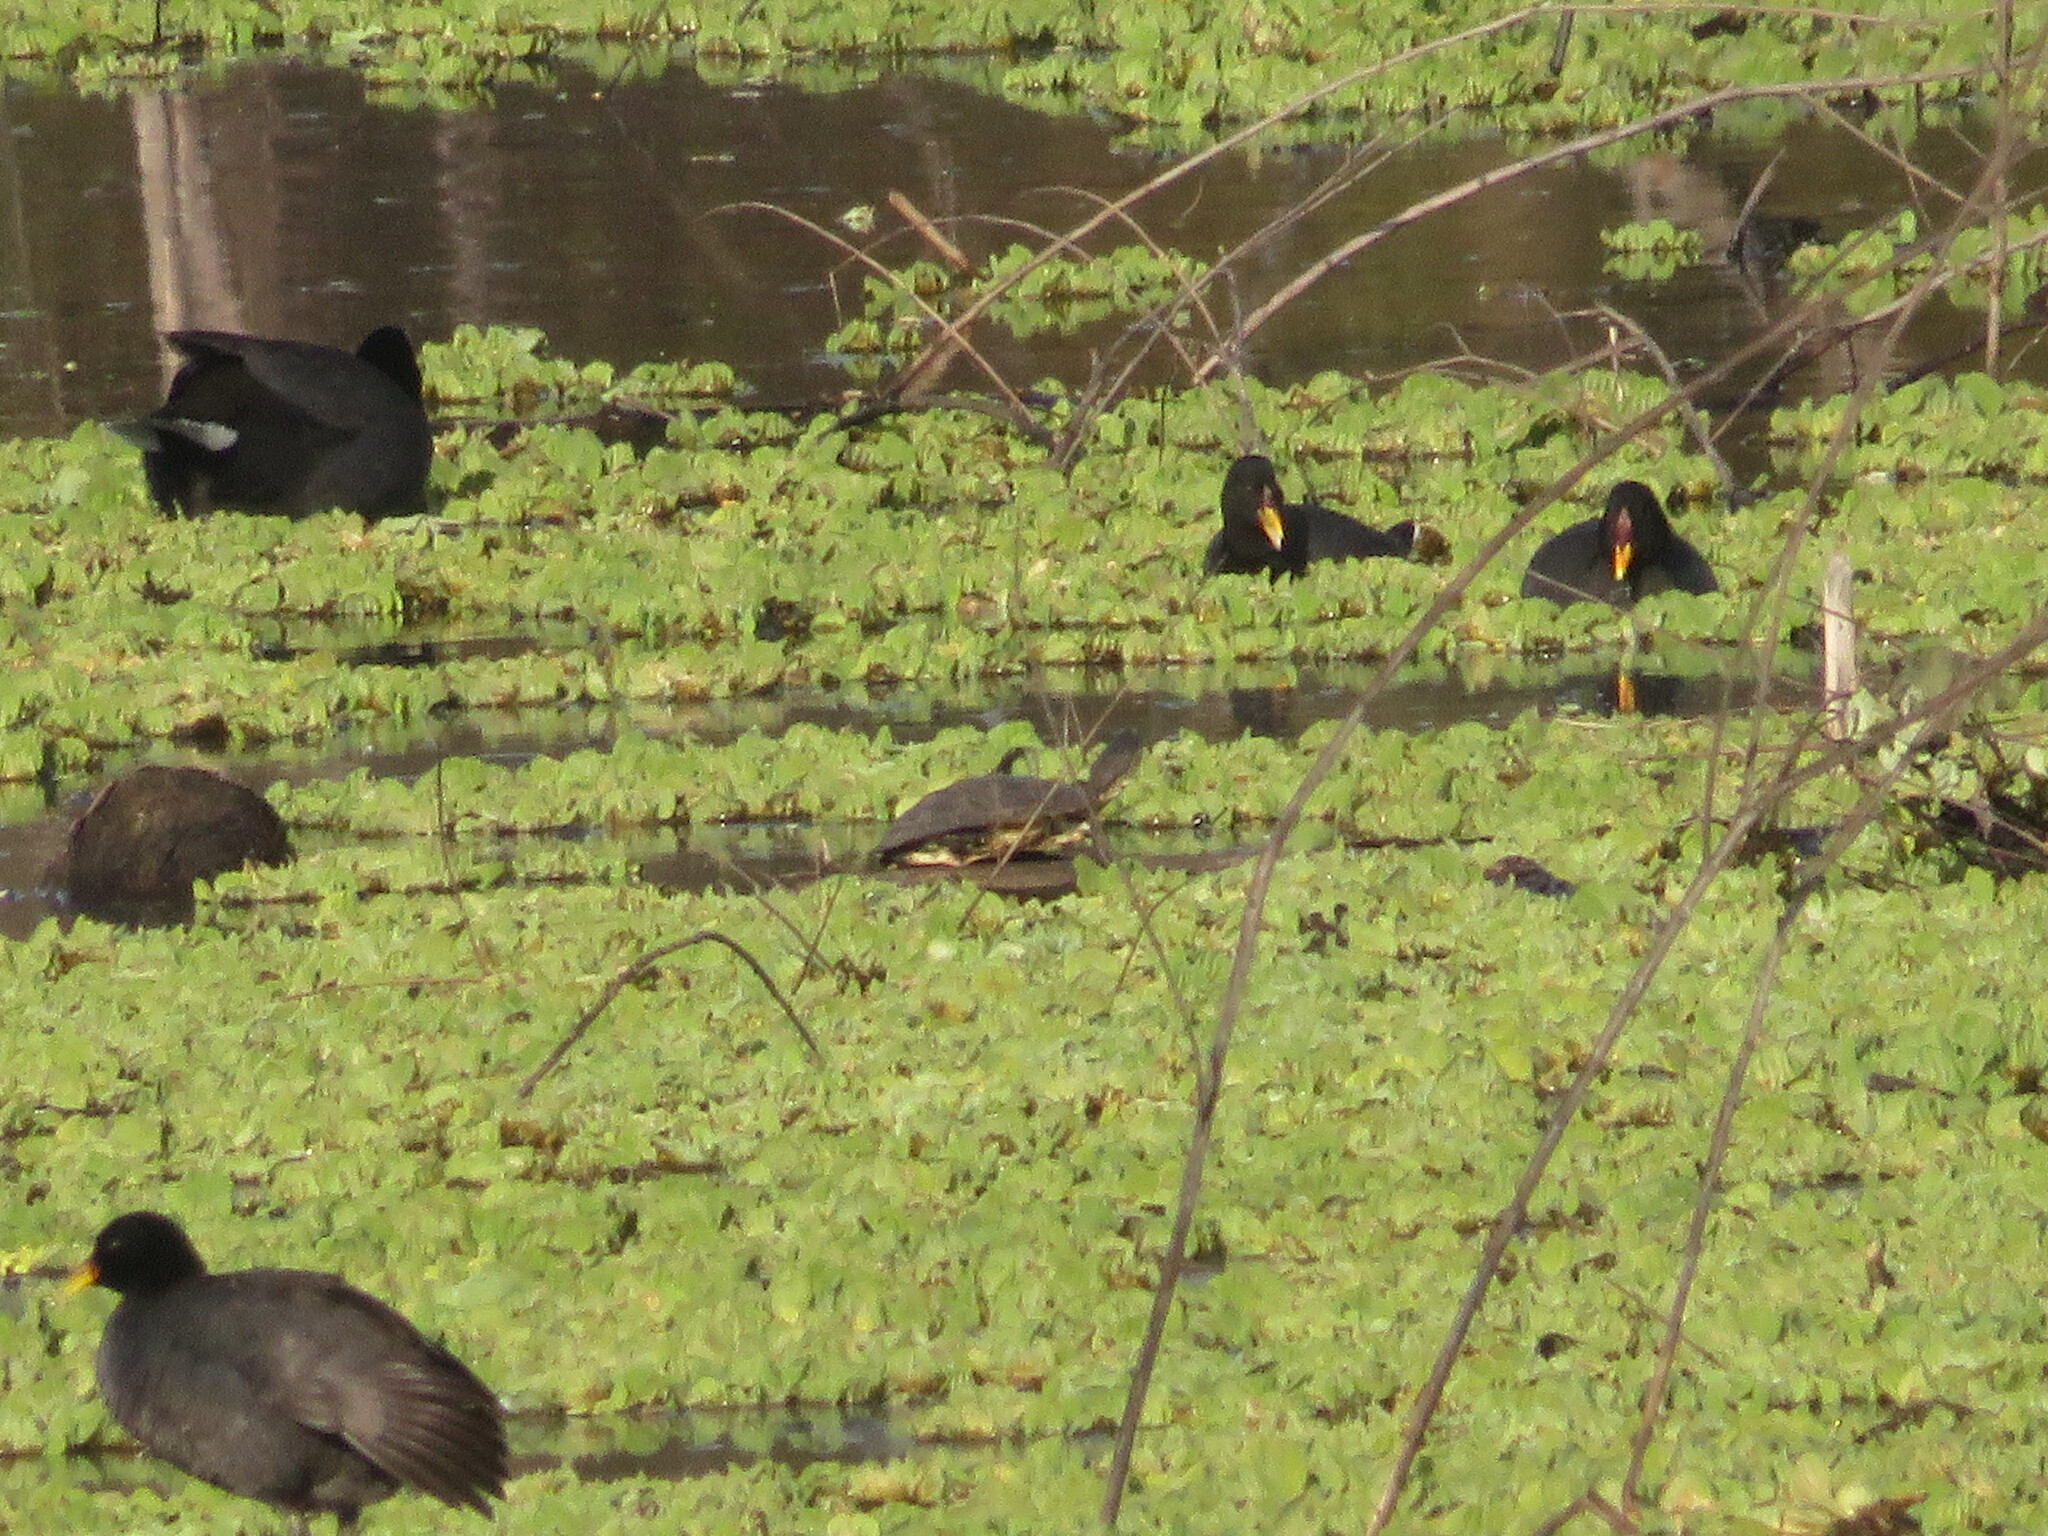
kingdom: Animalia
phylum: Chordata
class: Testudines
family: Chelidae
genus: Phrynops
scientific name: Phrynops hilarii
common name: Side-necked turtle of saint hillaire
